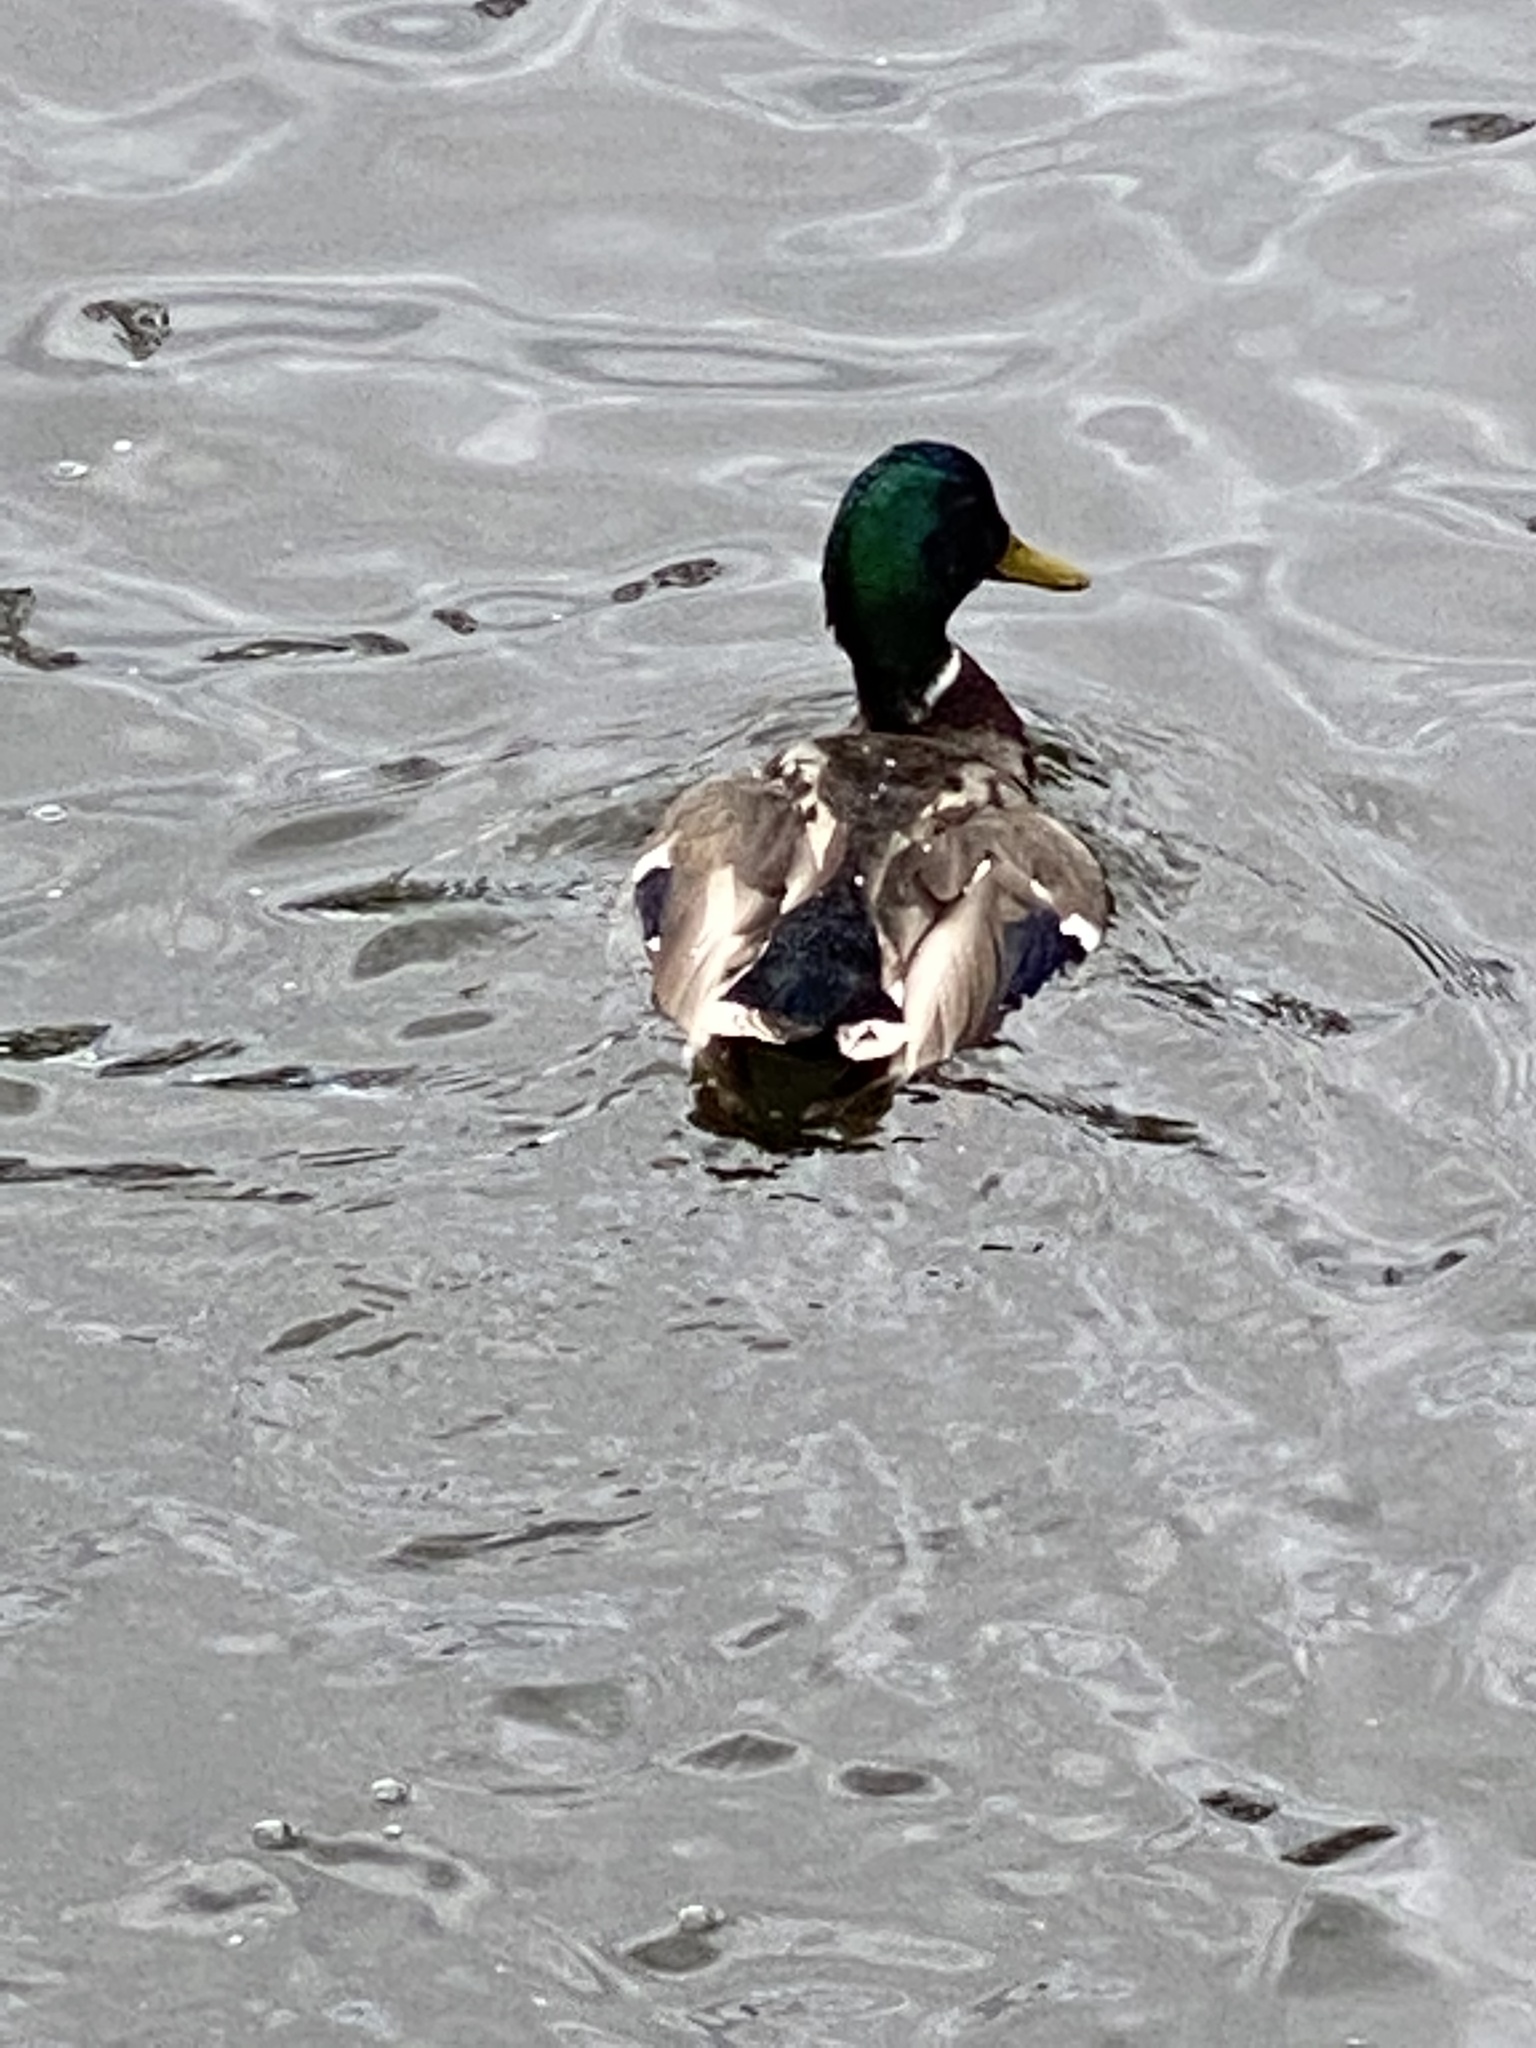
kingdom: Animalia
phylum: Chordata
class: Aves
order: Anseriformes
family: Anatidae
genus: Anas
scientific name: Anas platyrhynchos
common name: Mallard
